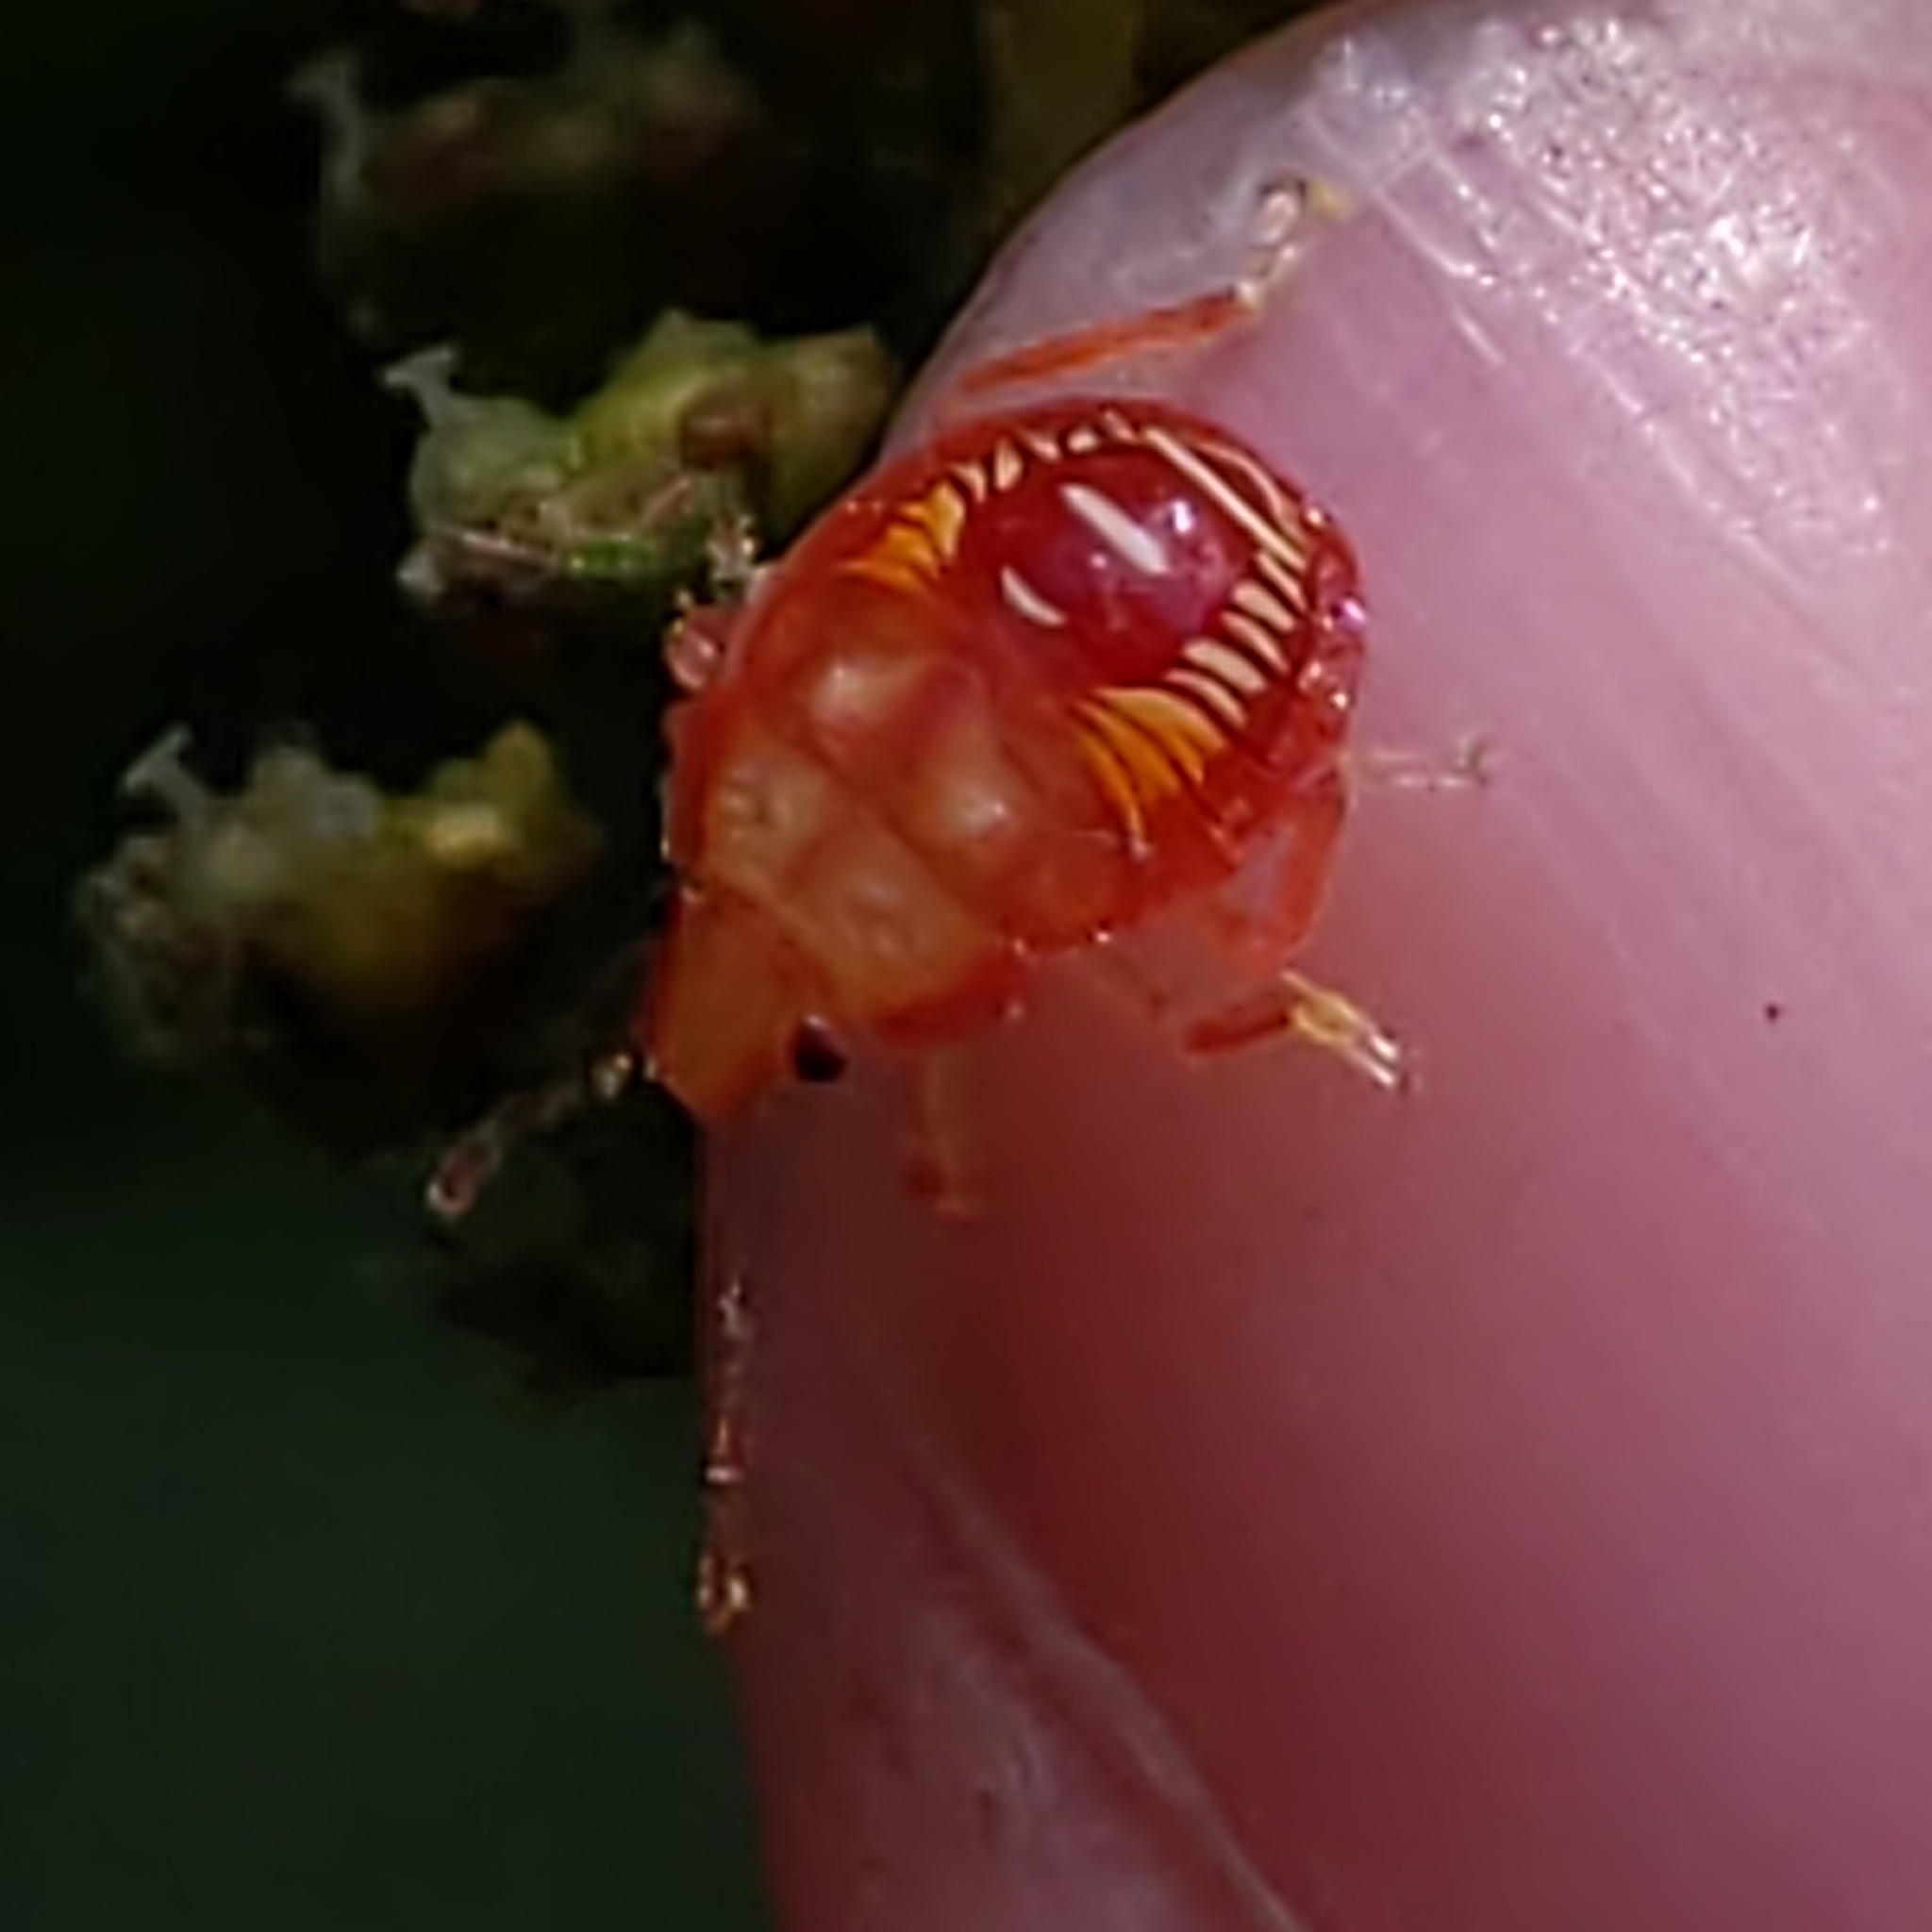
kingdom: Animalia
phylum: Arthropoda
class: Insecta
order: Hemiptera
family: Pentatomidae
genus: Podisus
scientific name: Podisus
